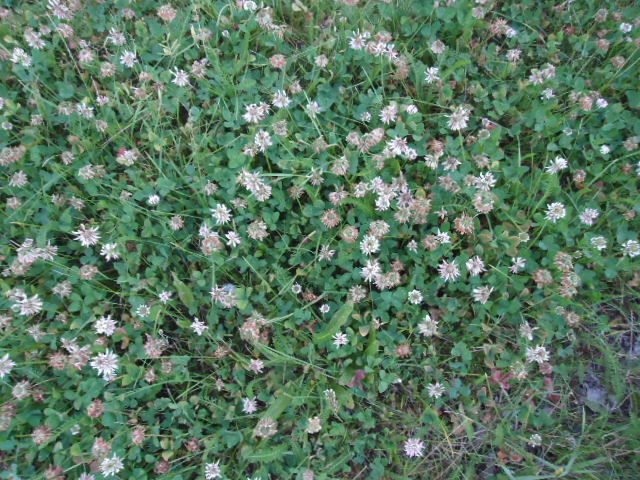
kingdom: Plantae
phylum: Tracheophyta
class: Magnoliopsida
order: Fabales
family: Fabaceae
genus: Trifolium
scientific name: Trifolium repens
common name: White clover
